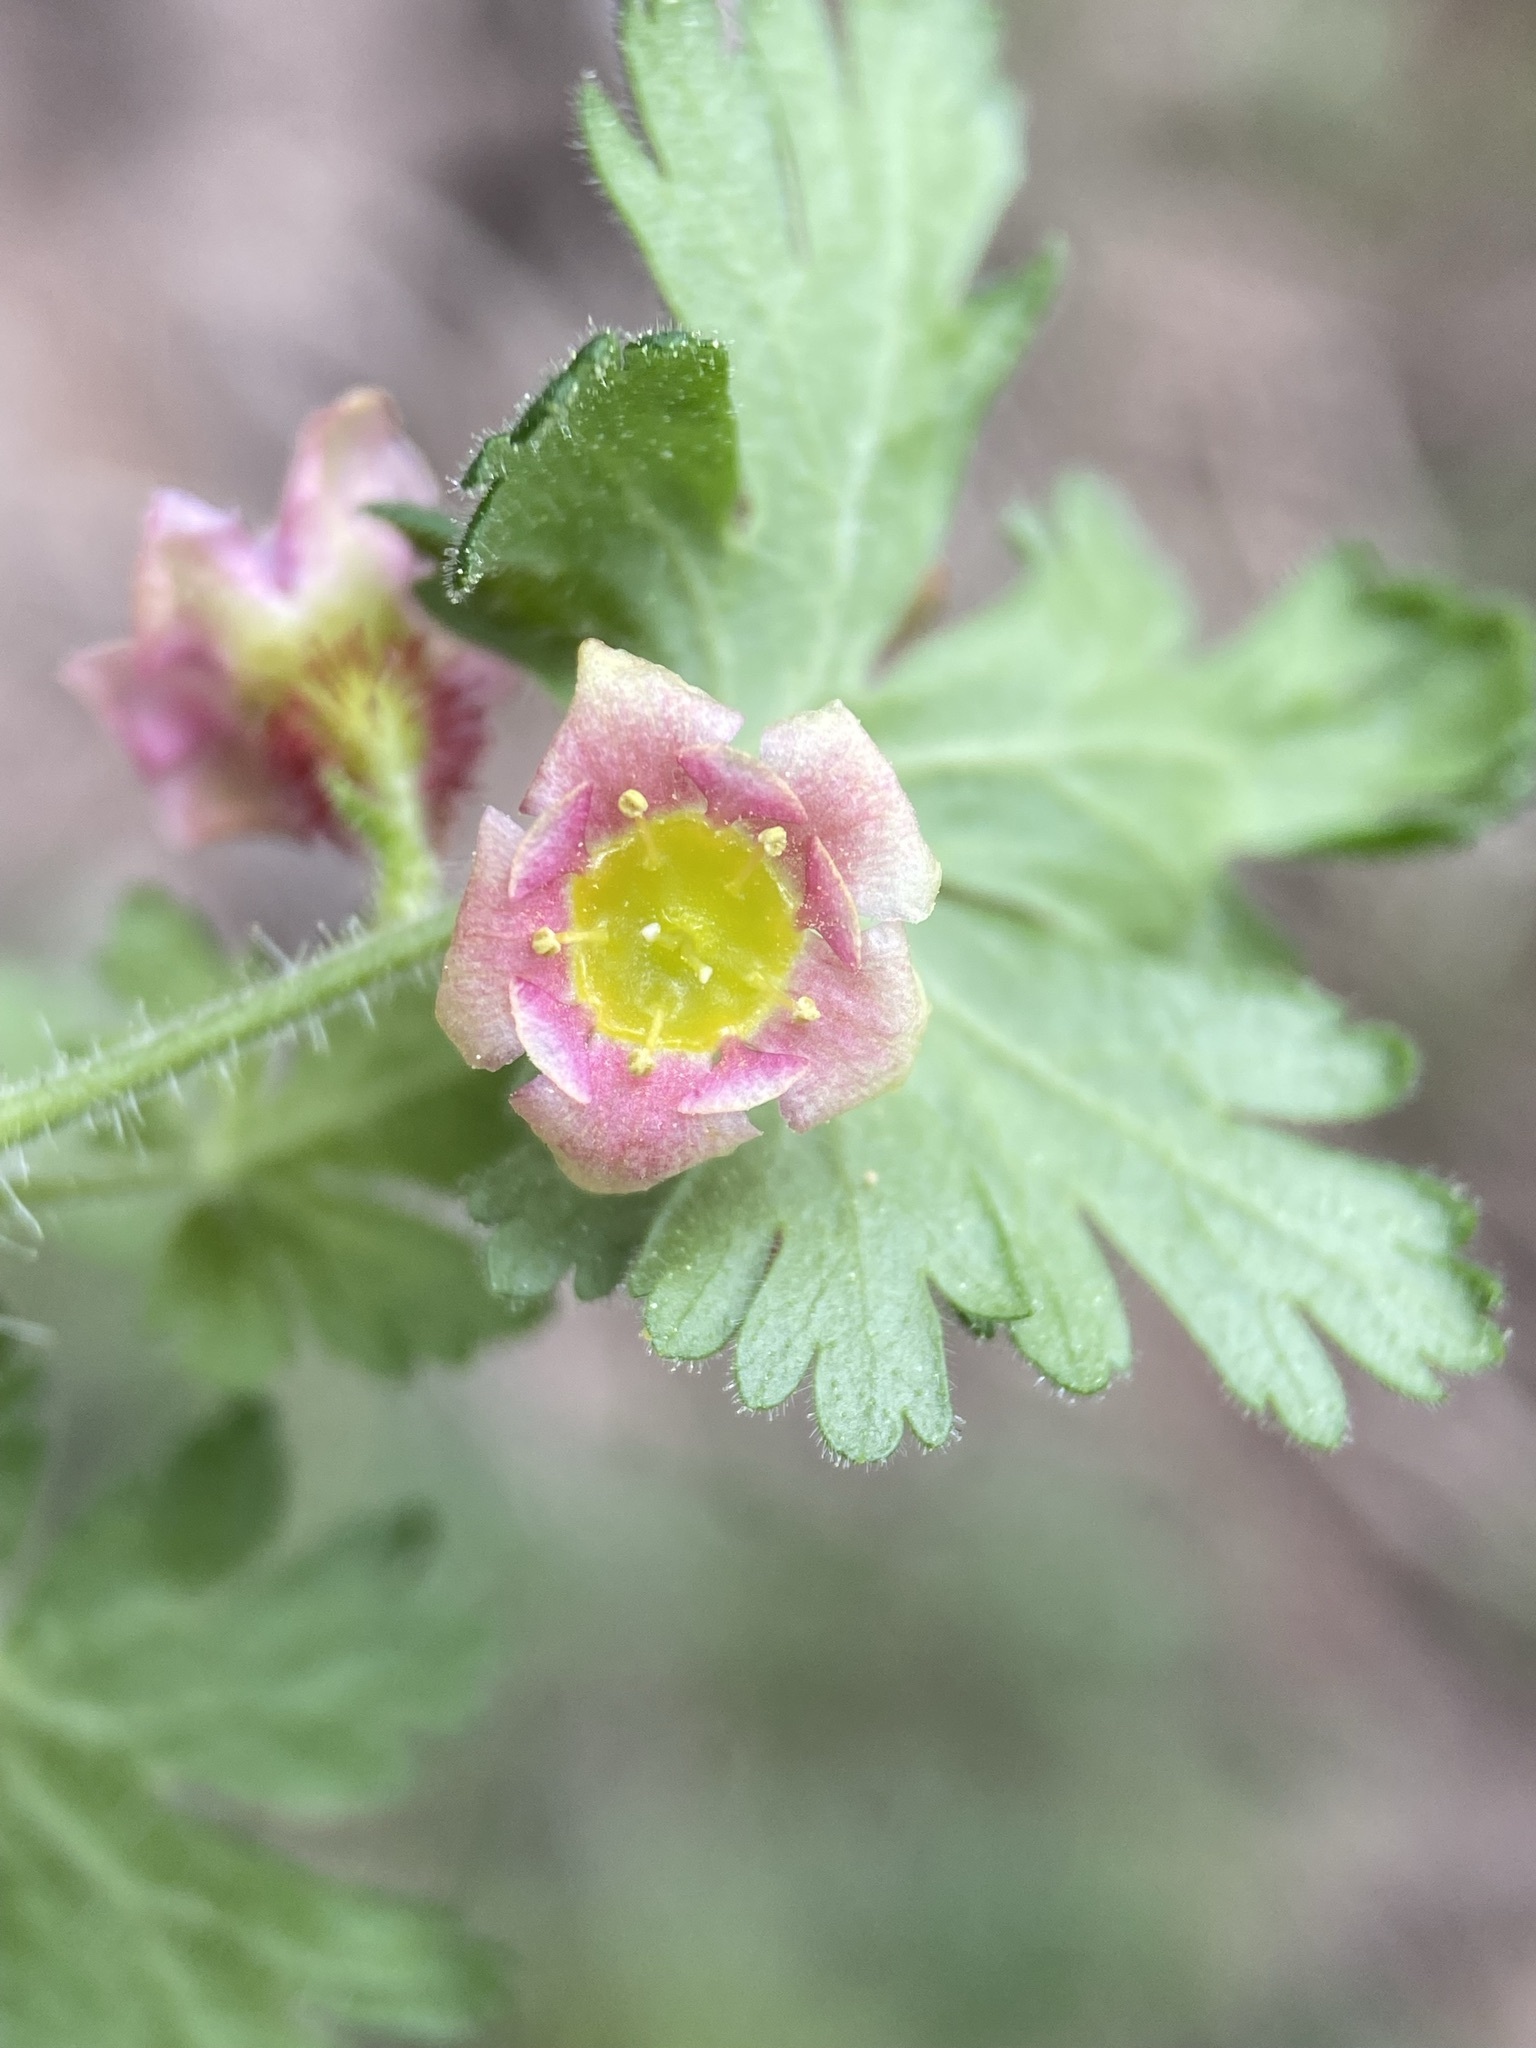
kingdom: Plantae
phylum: Tracheophyta
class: Magnoliopsida
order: Saxifragales
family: Grossulariaceae
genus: Ribes
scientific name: Ribes montigenum
